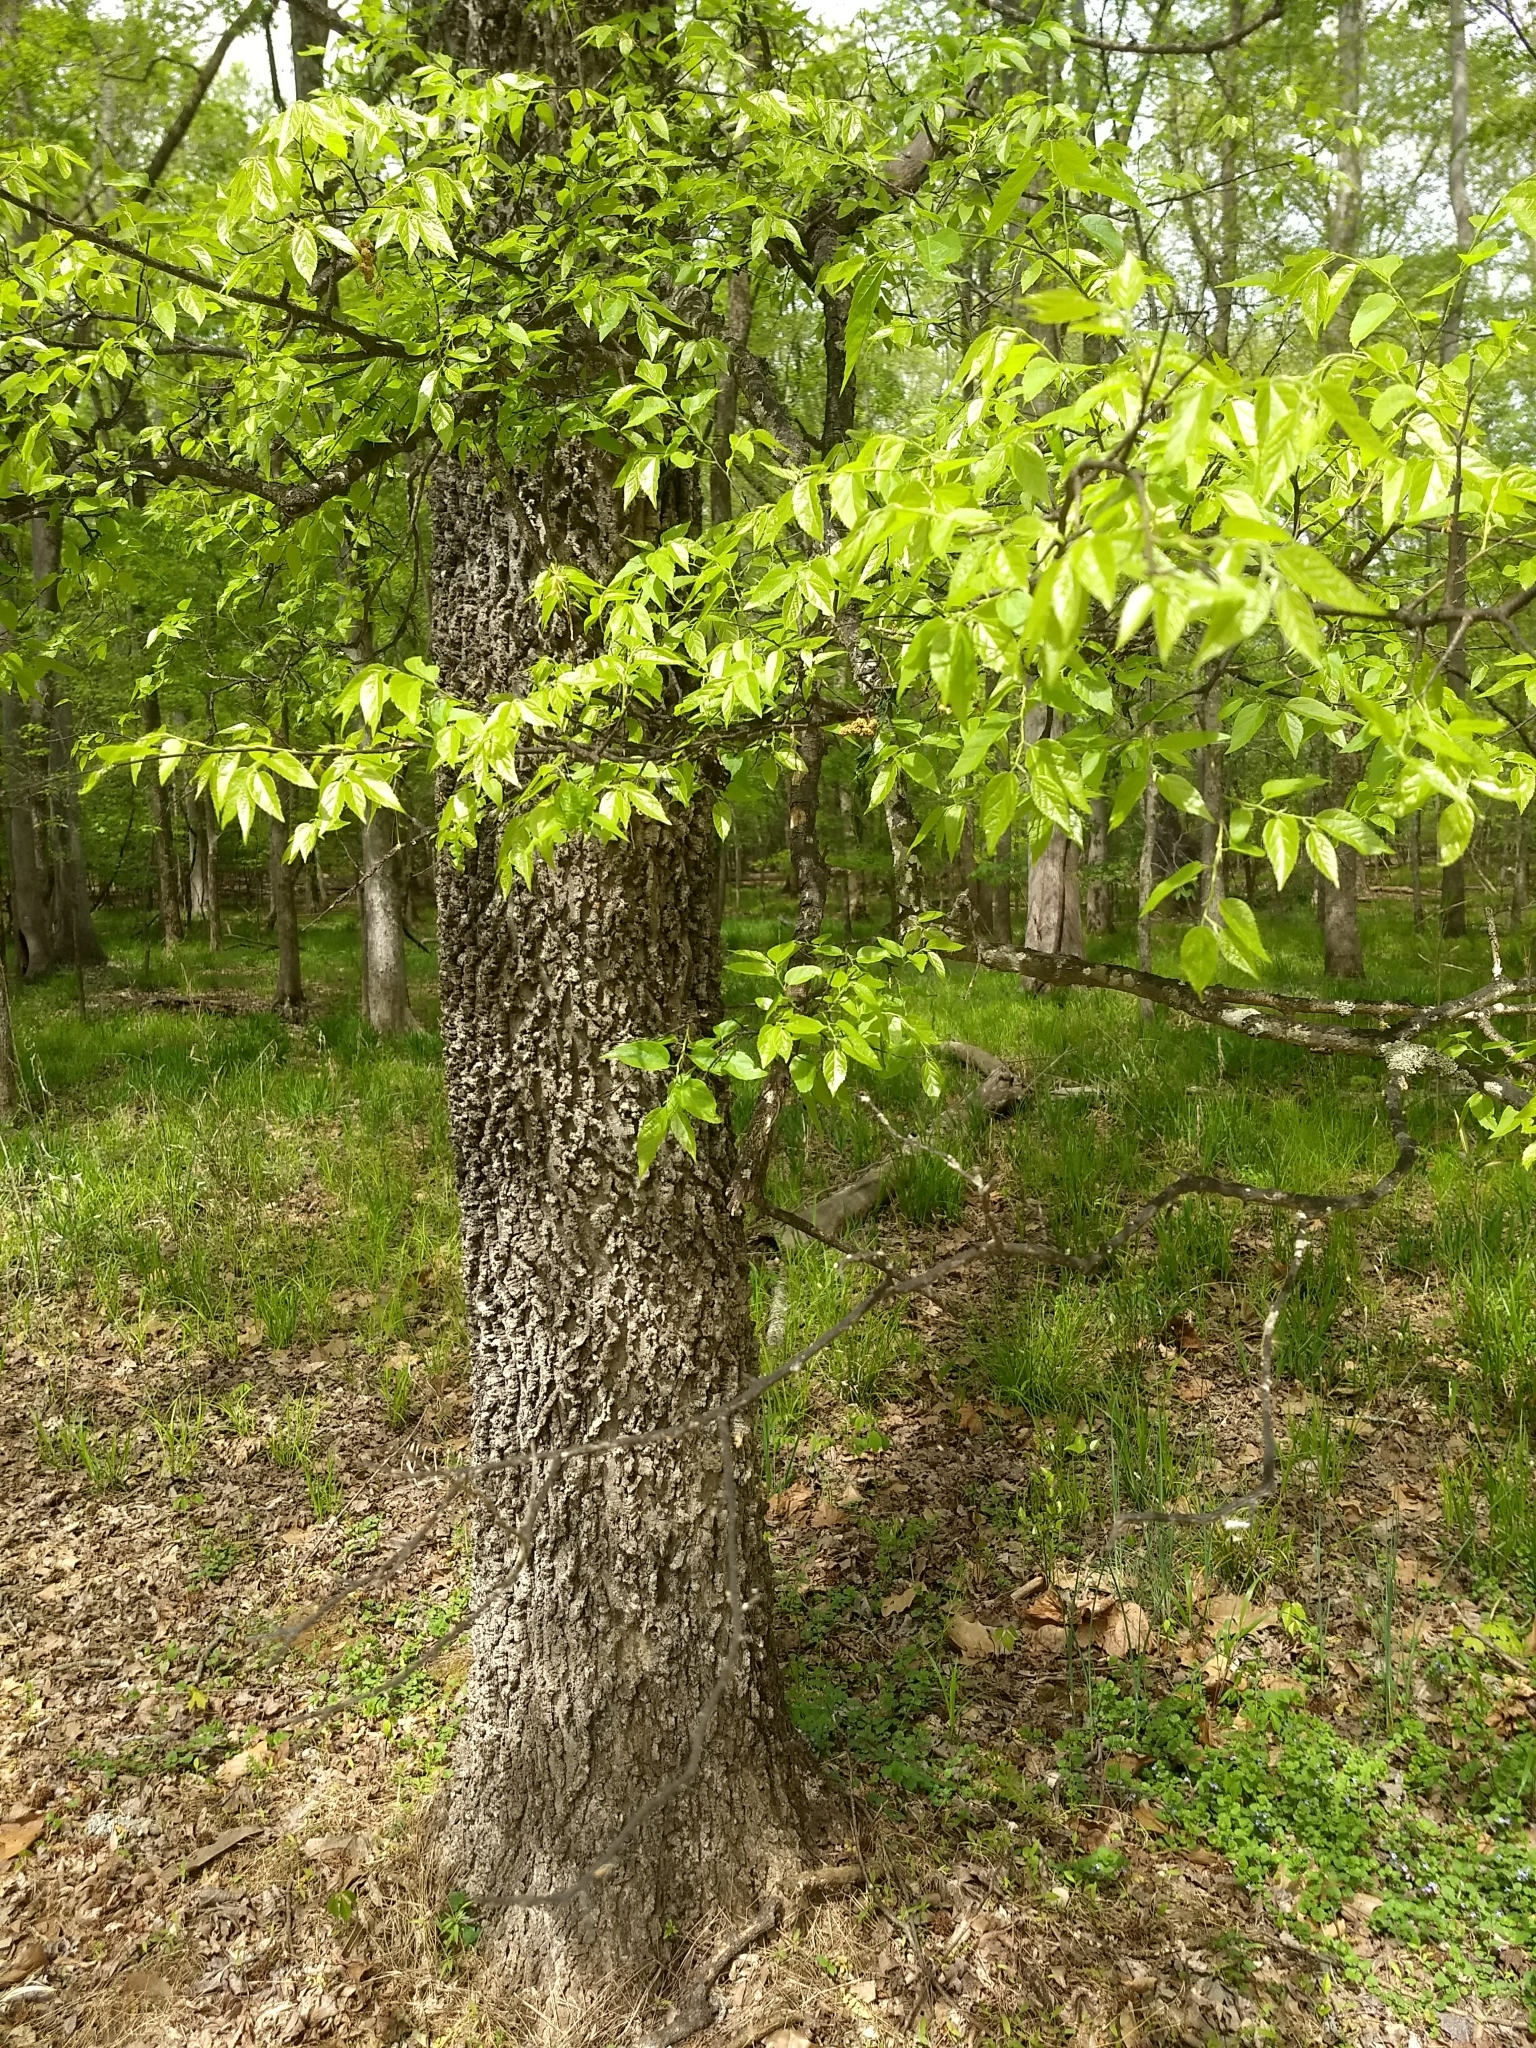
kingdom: Plantae
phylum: Tracheophyta
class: Magnoliopsida
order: Rosales
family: Cannabaceae
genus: Celtis
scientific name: Celtis occidentalis
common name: Common hackberry
